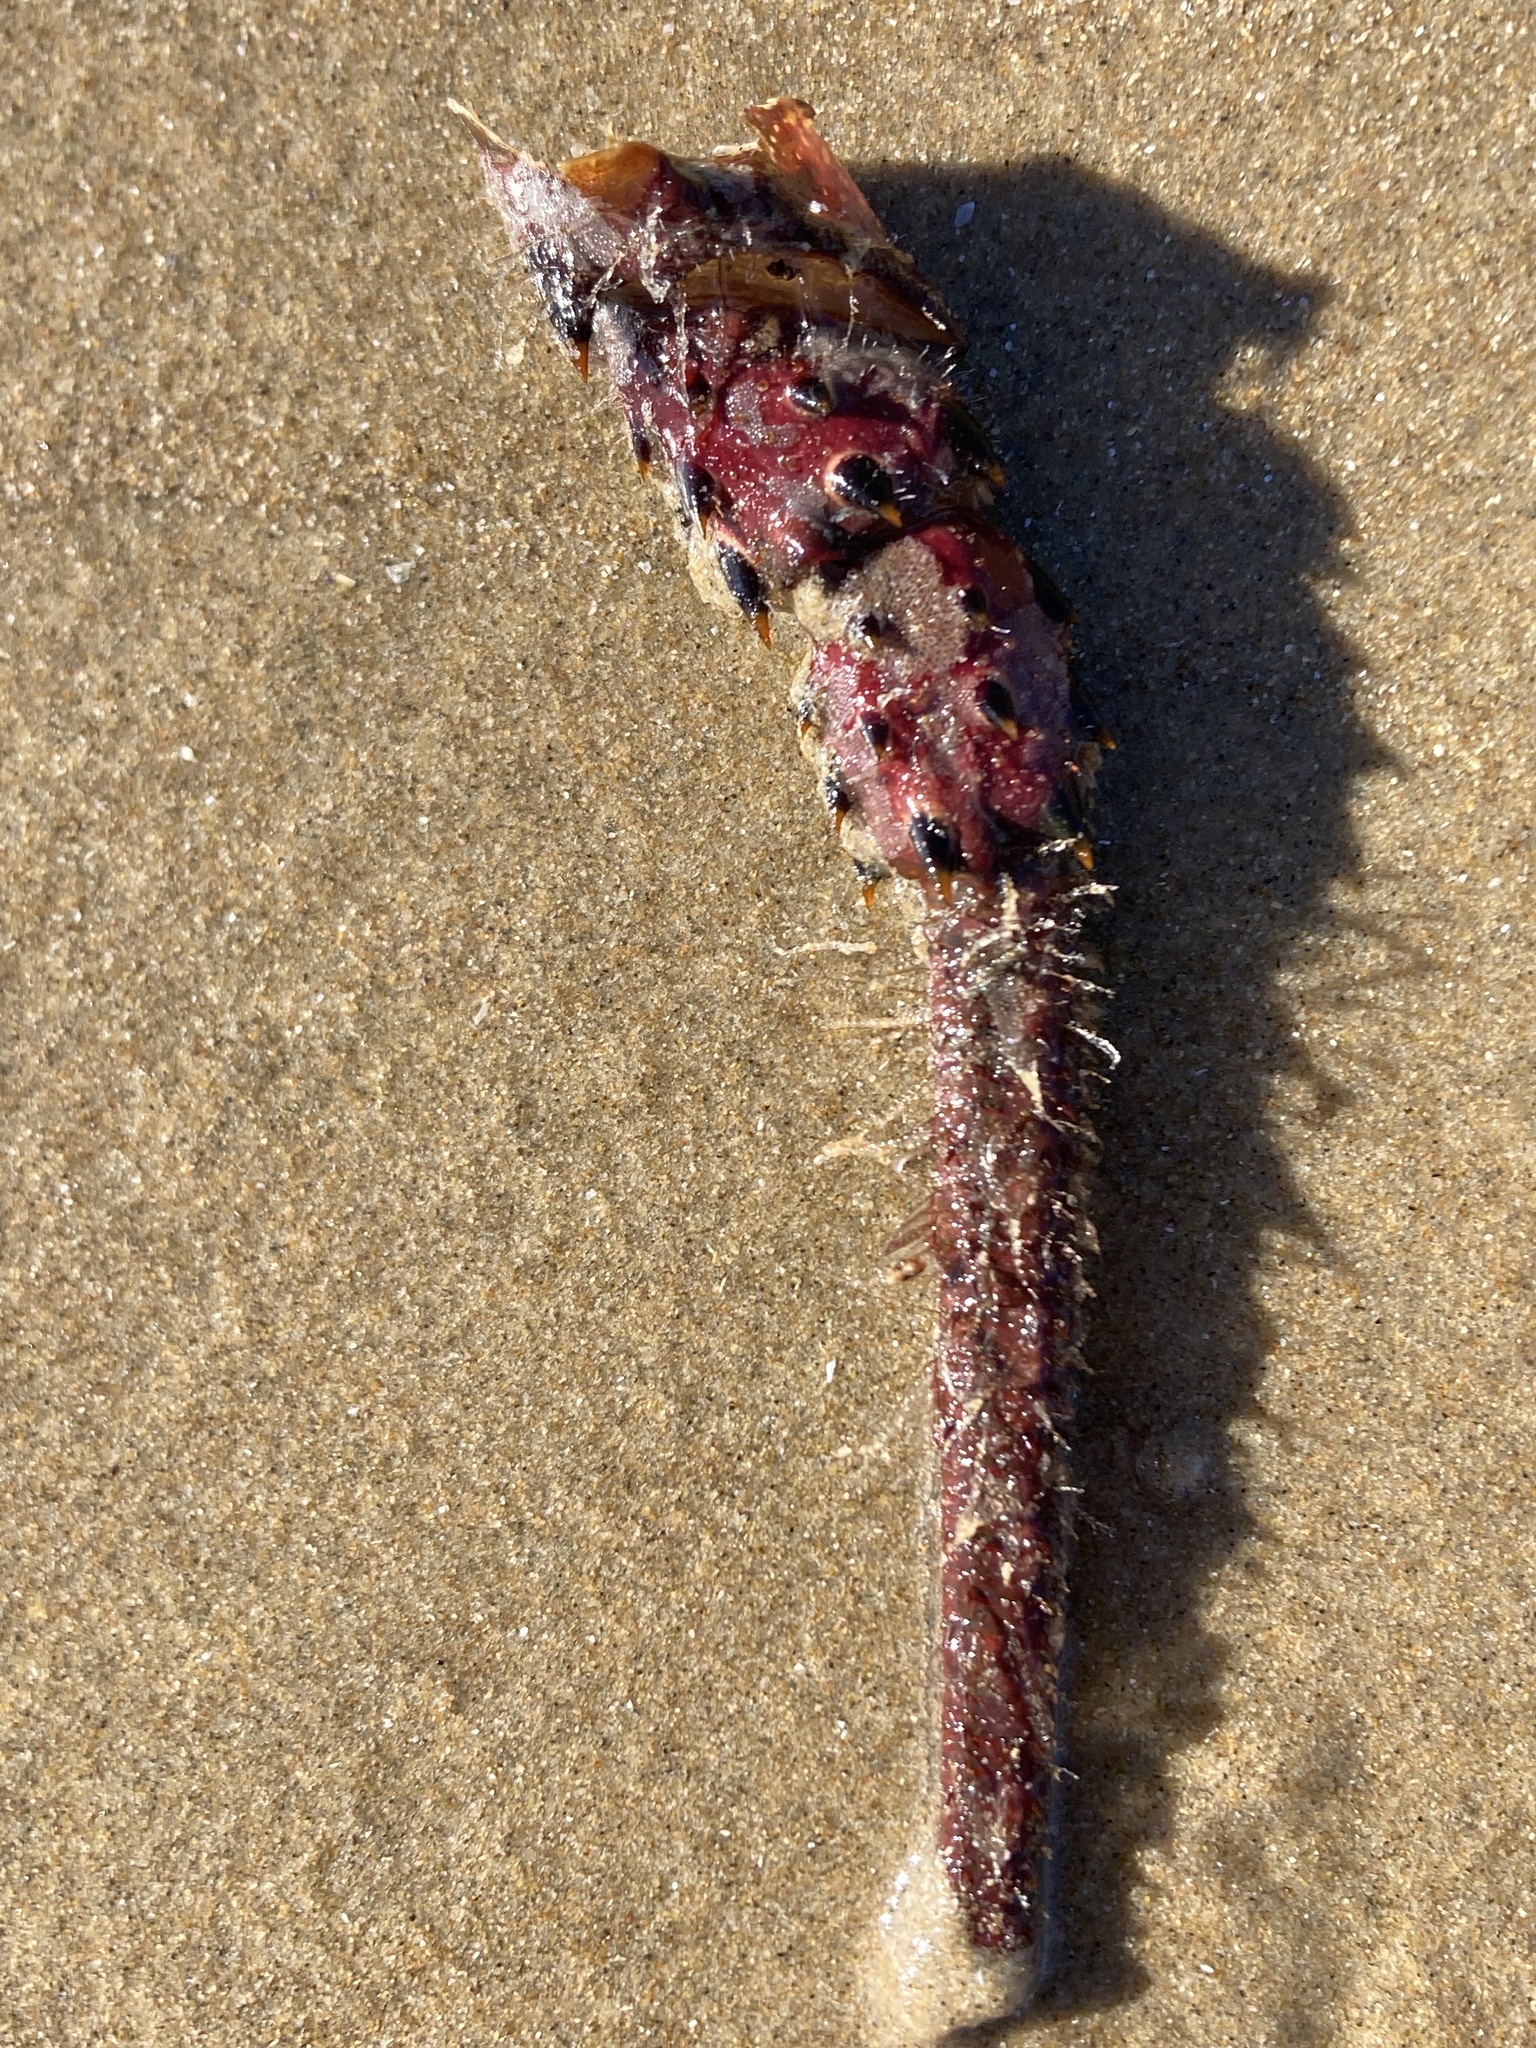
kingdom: Animalia
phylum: Arthropoda
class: Malacostraca
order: Decapoda
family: Palinuridae
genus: Panulirus
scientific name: Panulirus interruptus
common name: California spiny lobster
